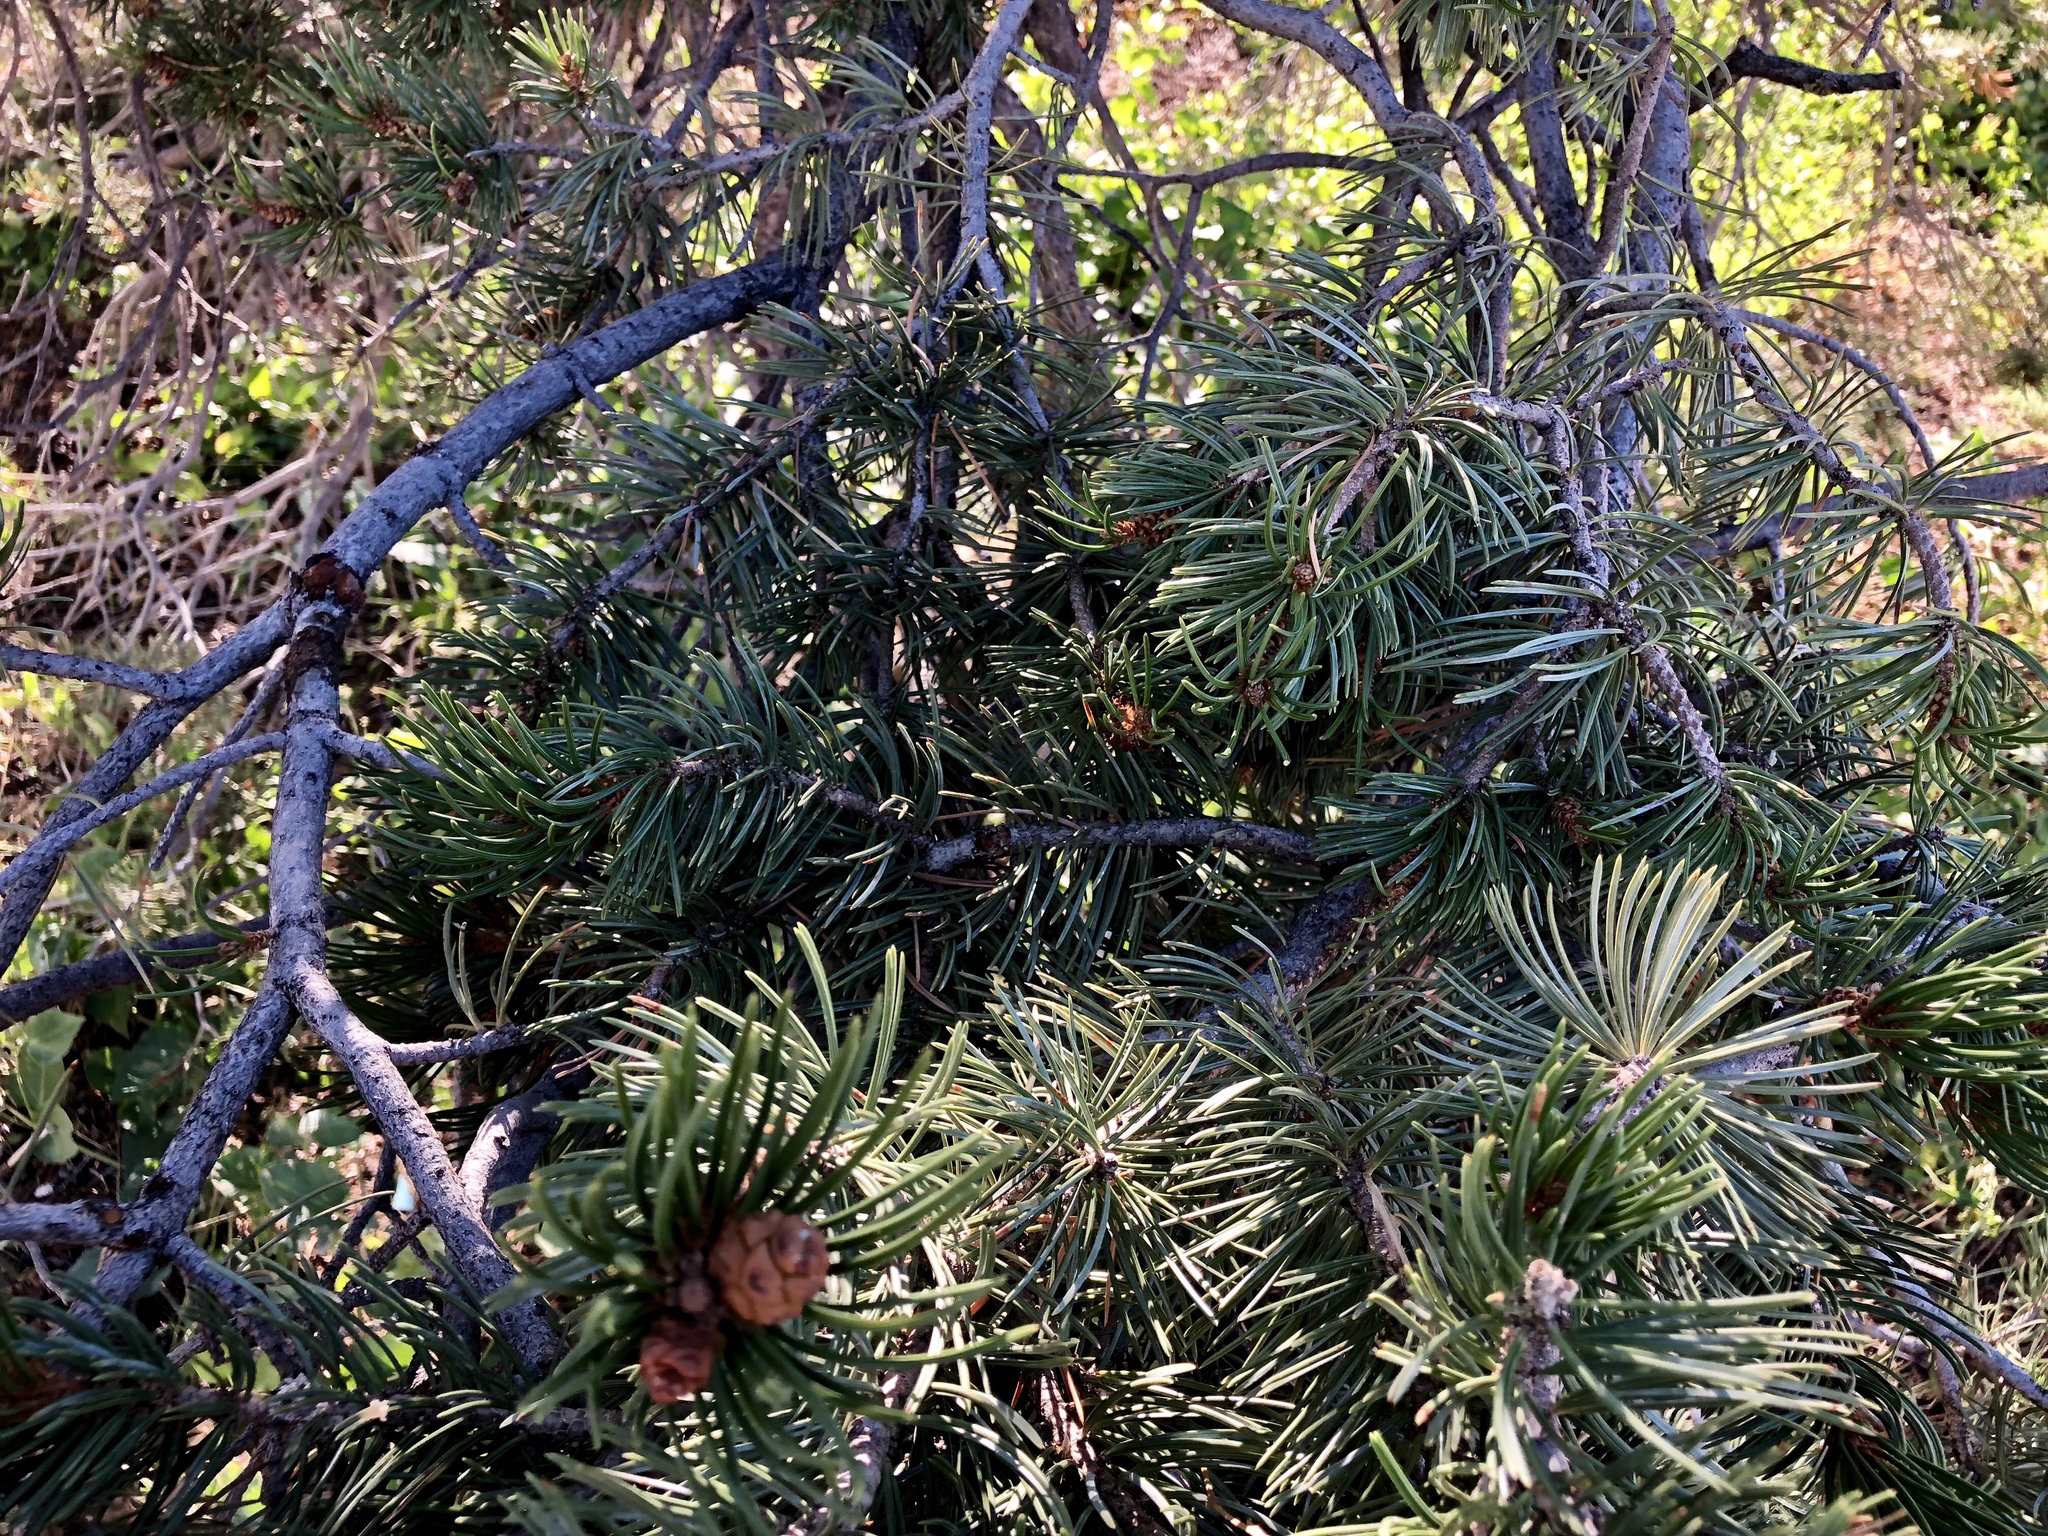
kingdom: Plantae
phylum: Tracheophyta
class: Pinopsida
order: Pinales
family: Pinaceae
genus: Pinus
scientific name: Pinus edulis
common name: Colorado pinyon
